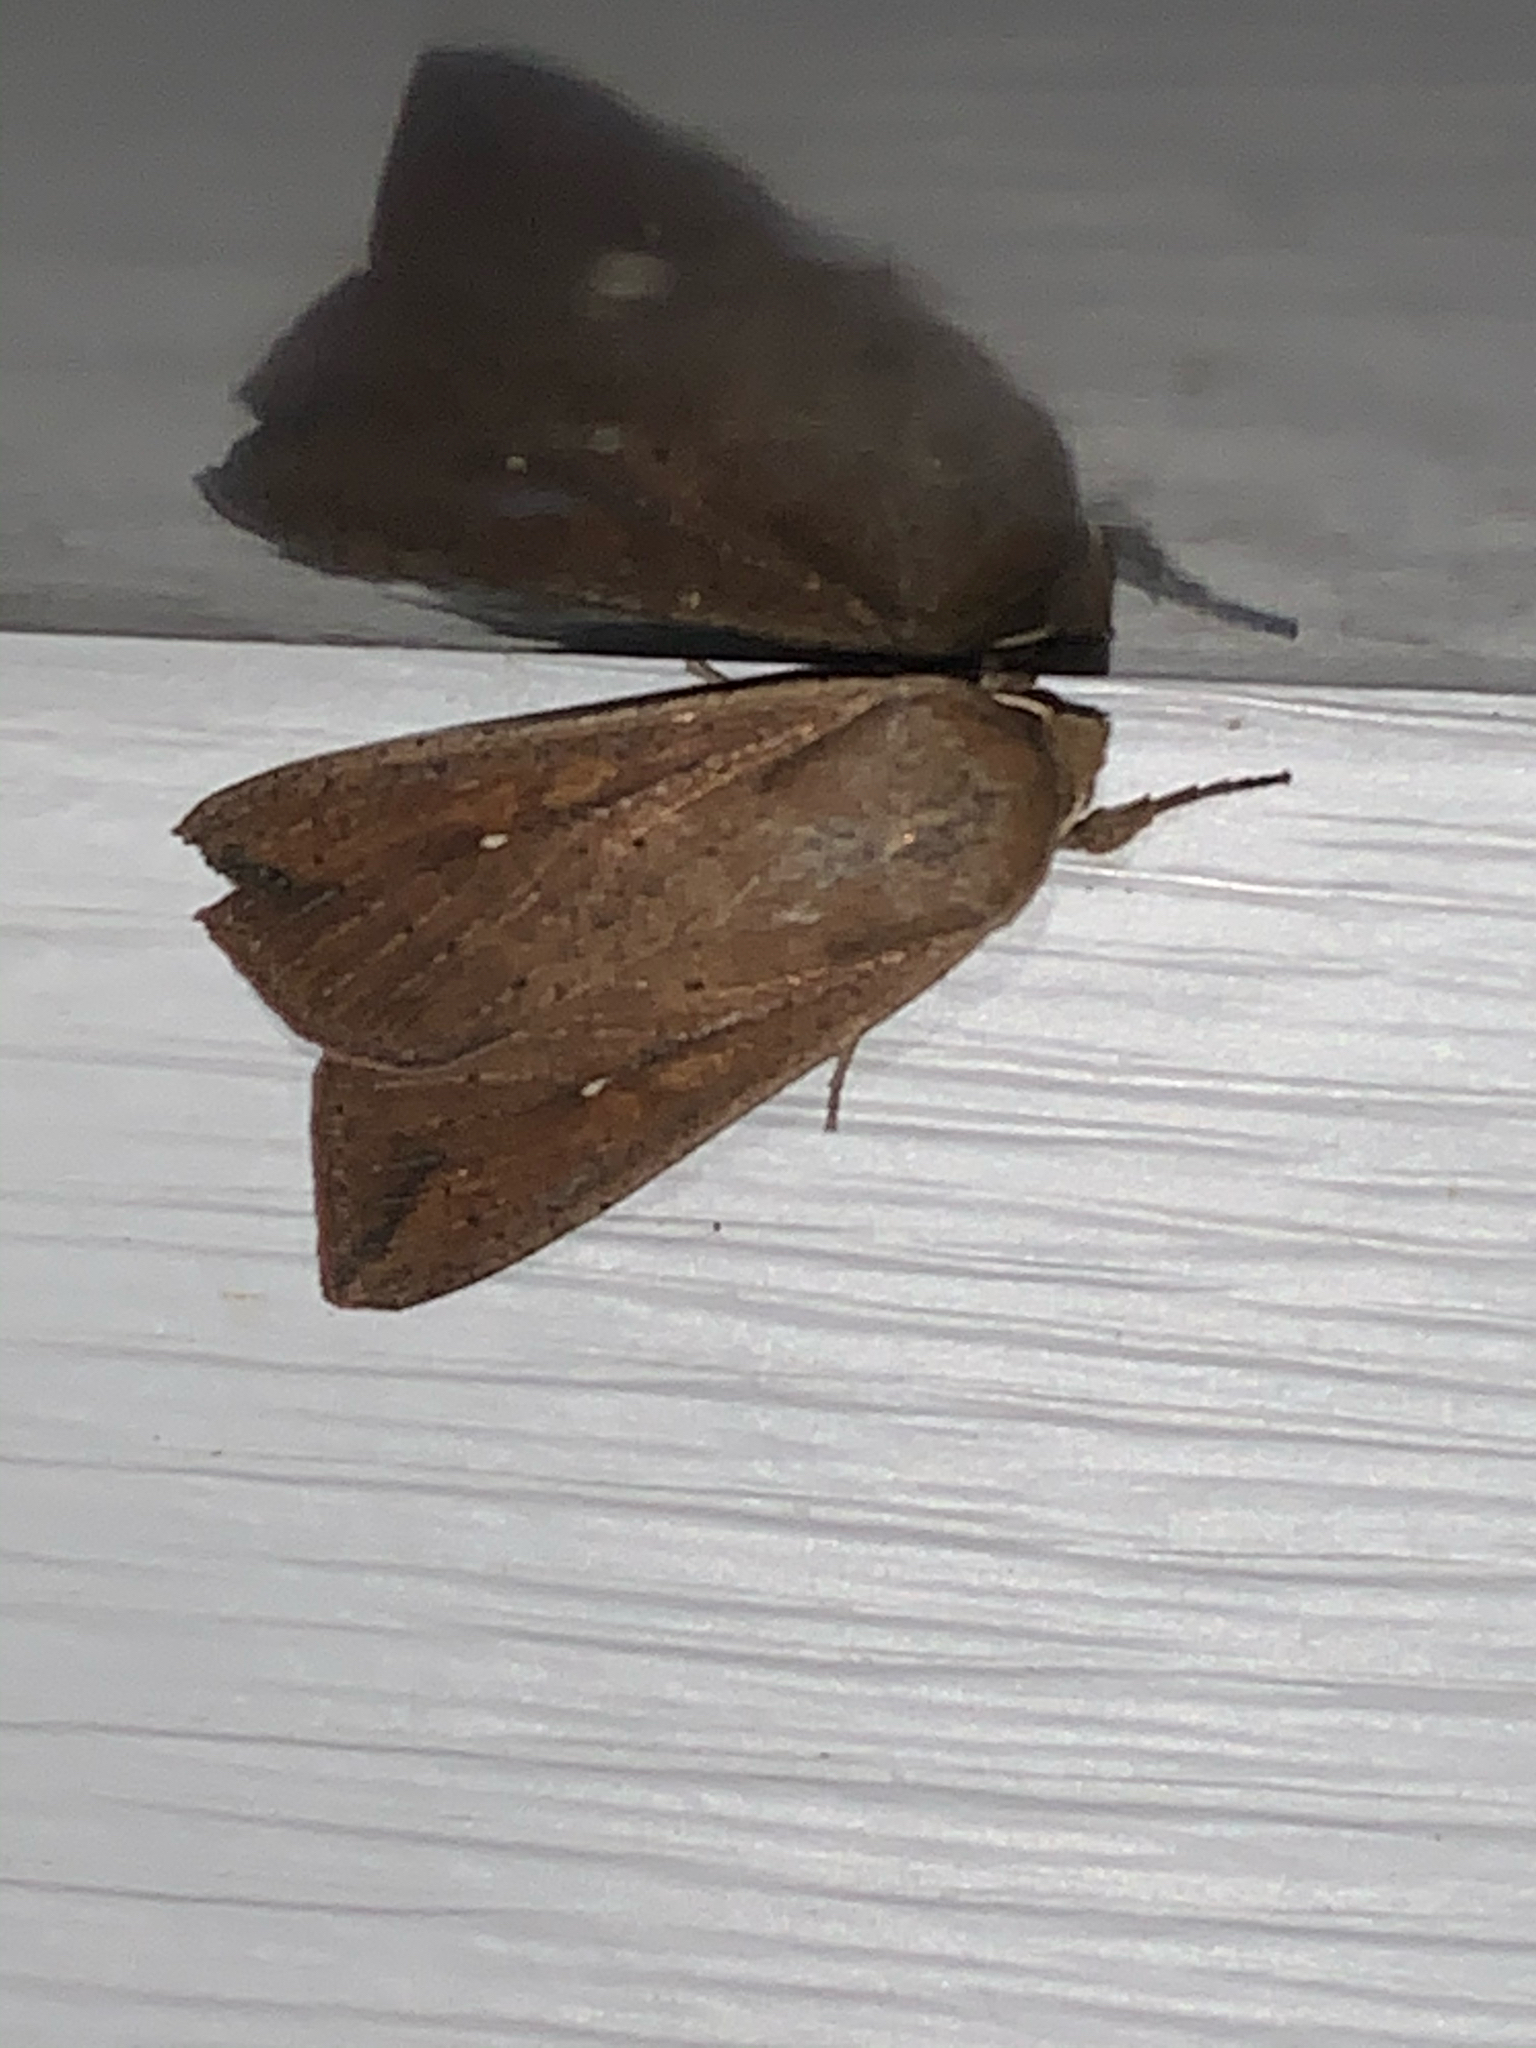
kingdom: Animalia
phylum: Arthropoda
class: Insecta
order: Lepidoptera
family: Noctuidae
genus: Mythimna
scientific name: Mythimna unipuncta
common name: White-speck
